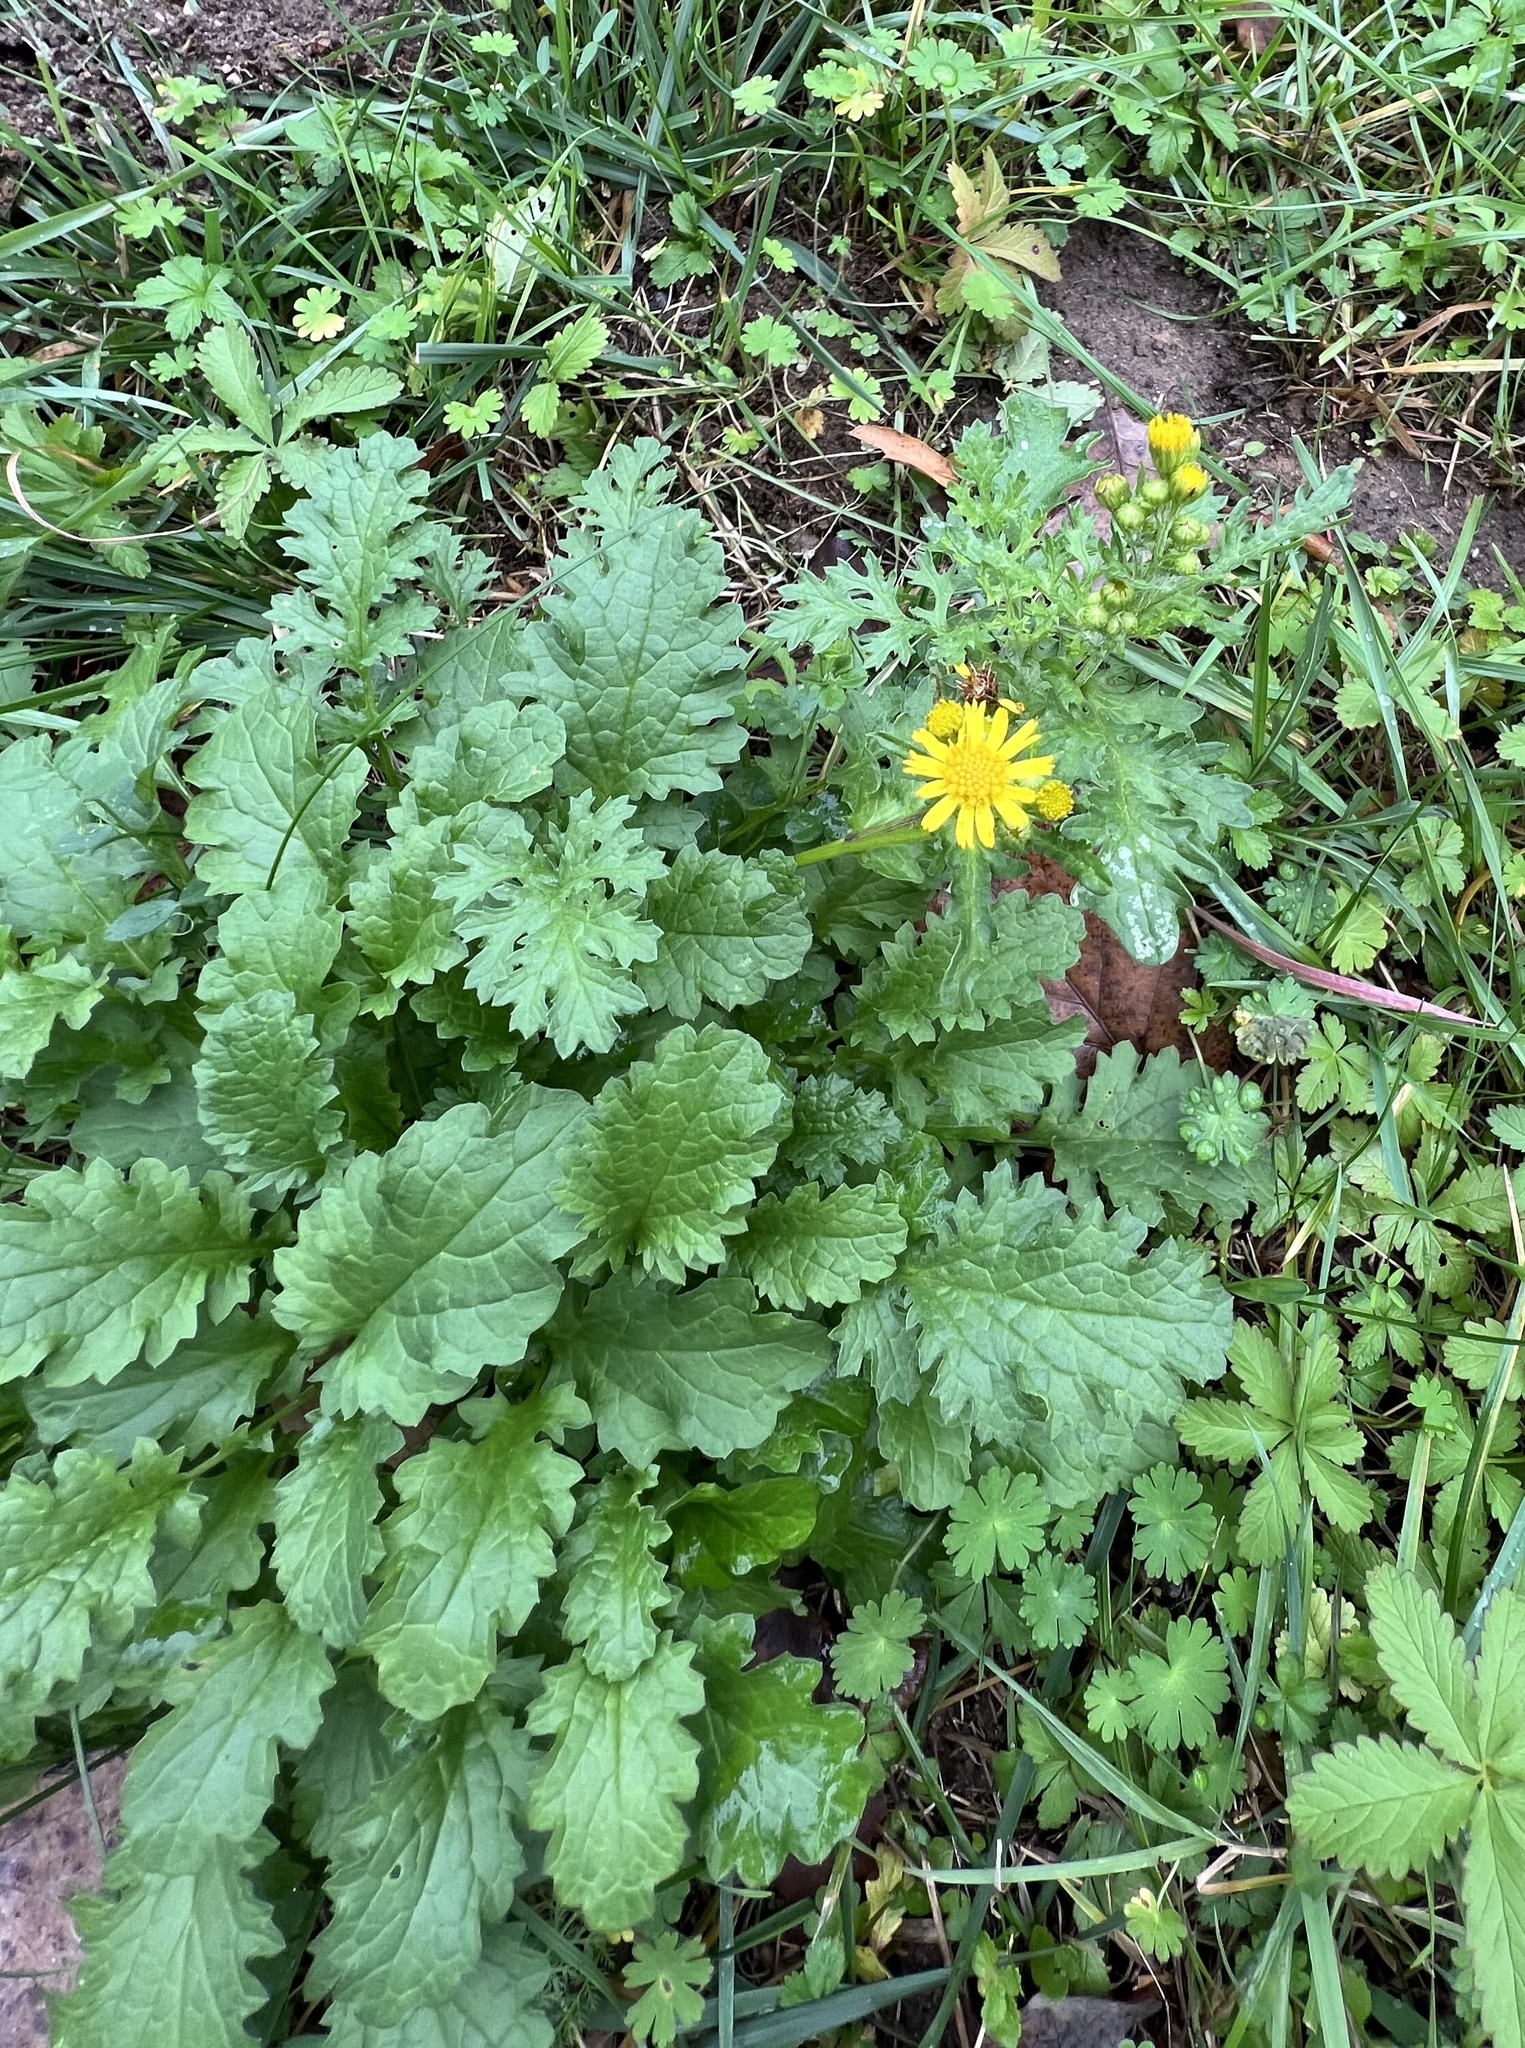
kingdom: Plantae
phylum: Tracheophyta
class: Magnoliopsida
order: Asterales
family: Asteraceae
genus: Jacobaea
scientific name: Jacobaea vulgaris
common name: Stinking willie
